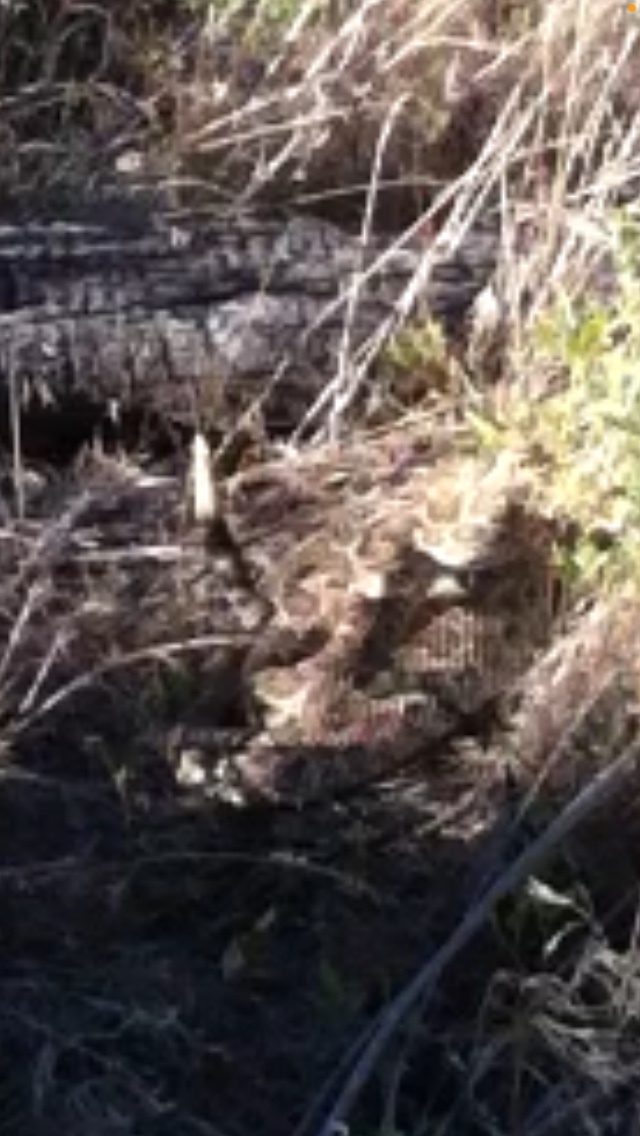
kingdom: Animalia
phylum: Chordata
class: Squamata
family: Viperidae
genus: Crotalus
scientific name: Crotalus viridis
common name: Prairie rattlesnake
